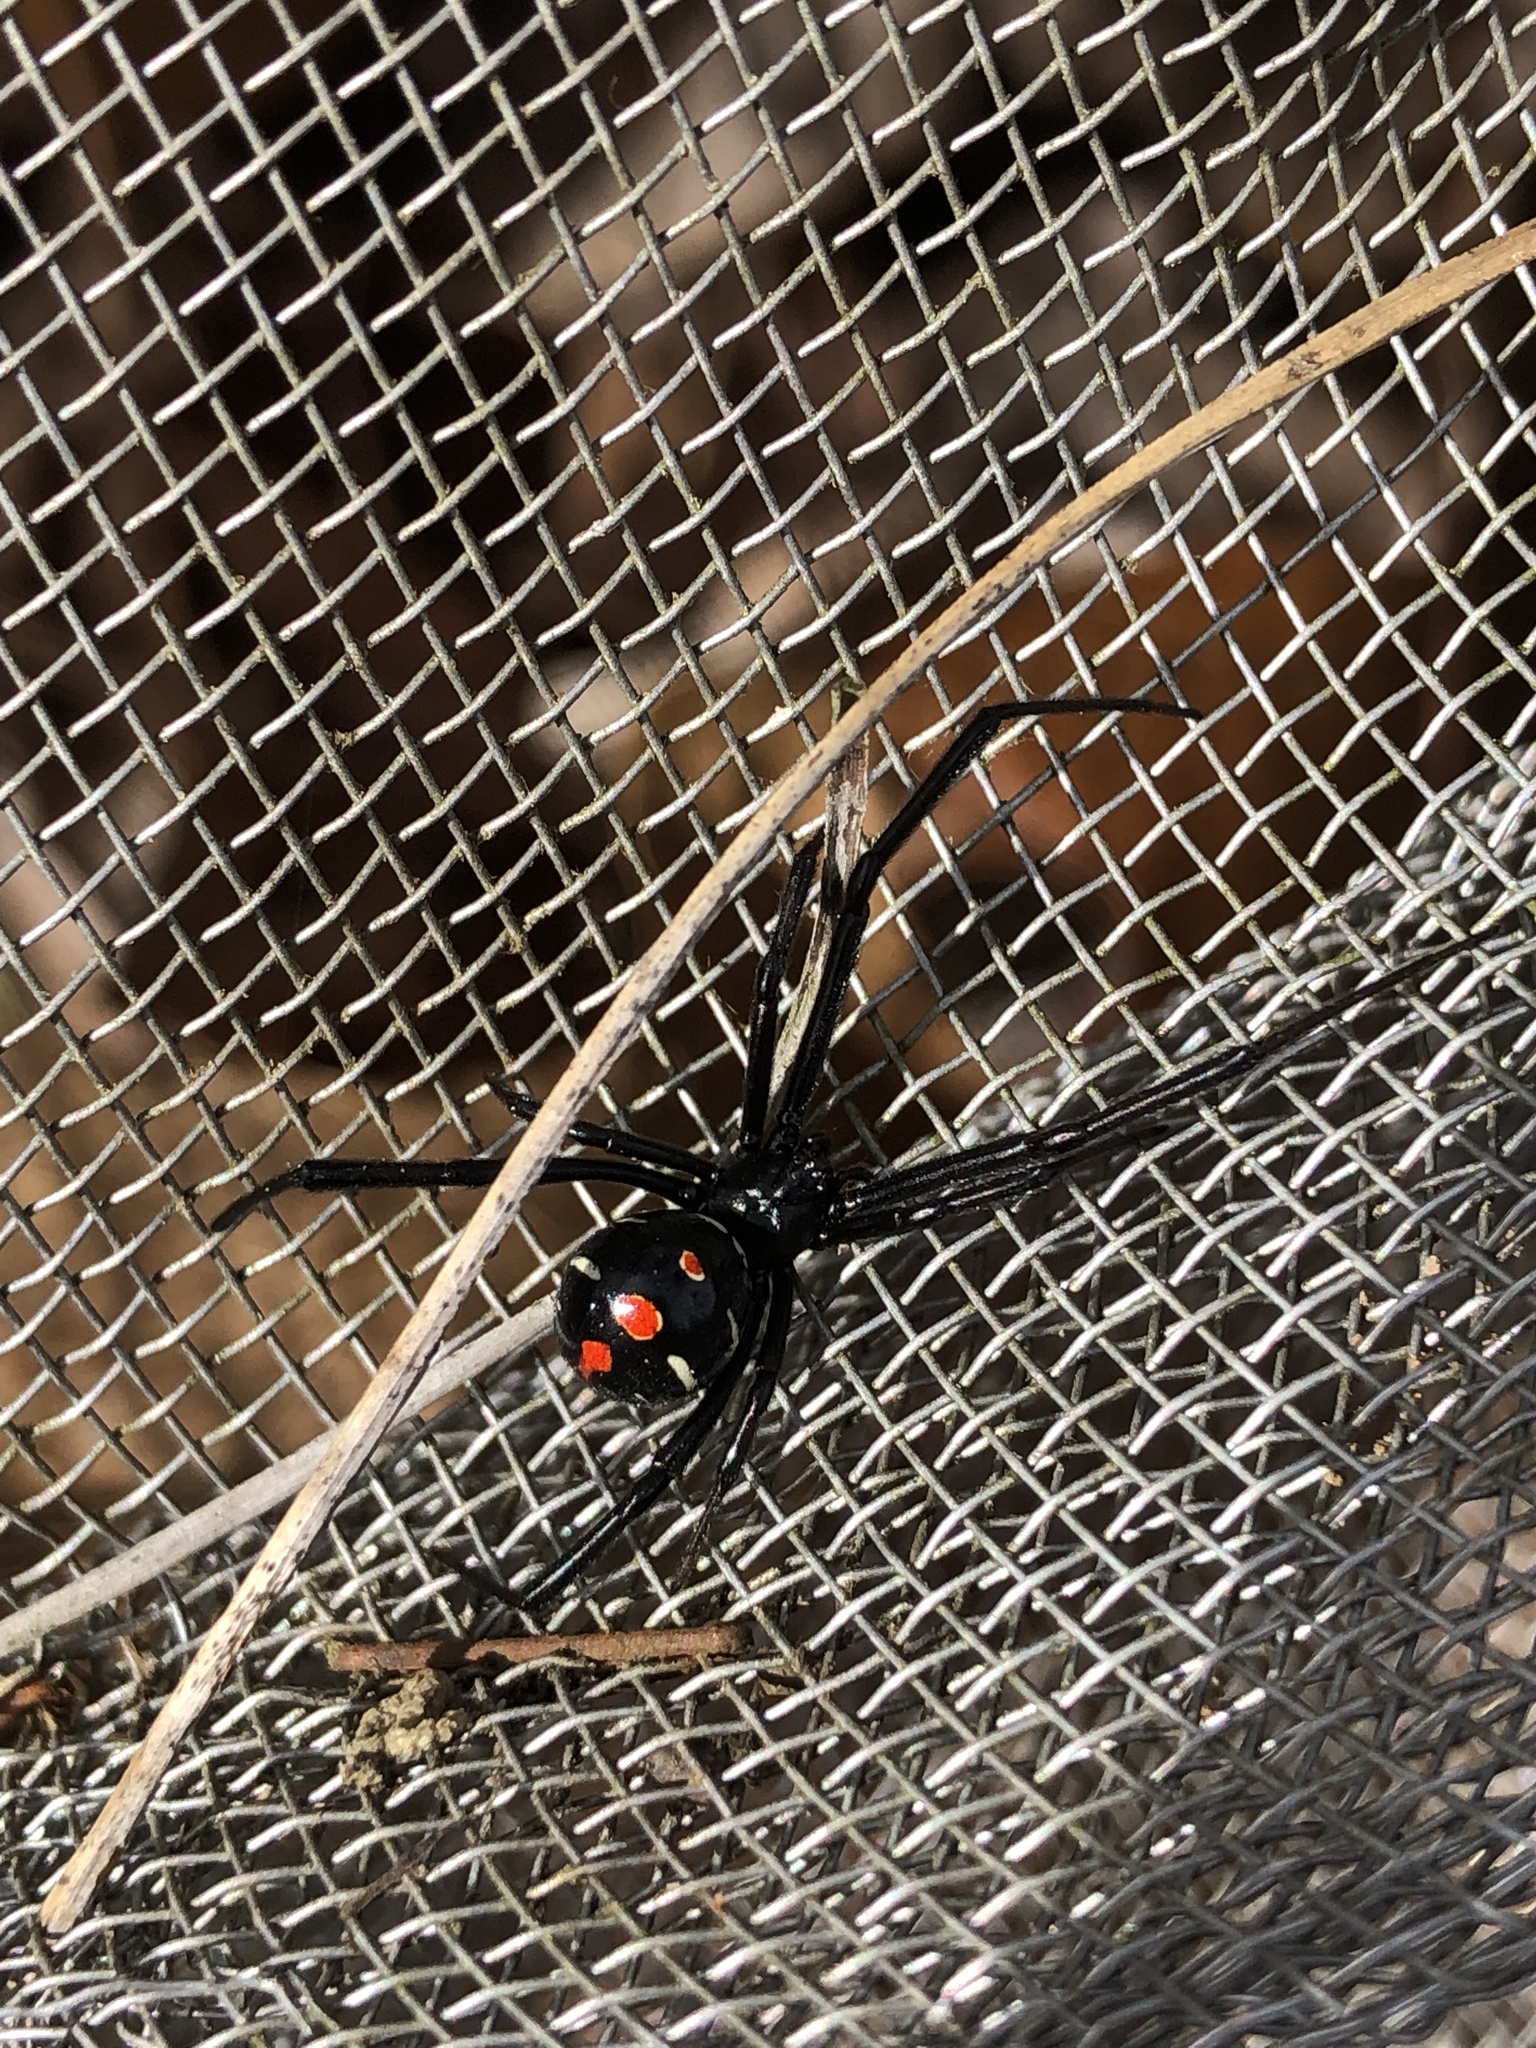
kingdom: Animalia
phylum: Arthropoda
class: Arachnida
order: Araneae
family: Theridiidae
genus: Latrodectus
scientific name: Latrodectus variolus
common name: Northern black widow
